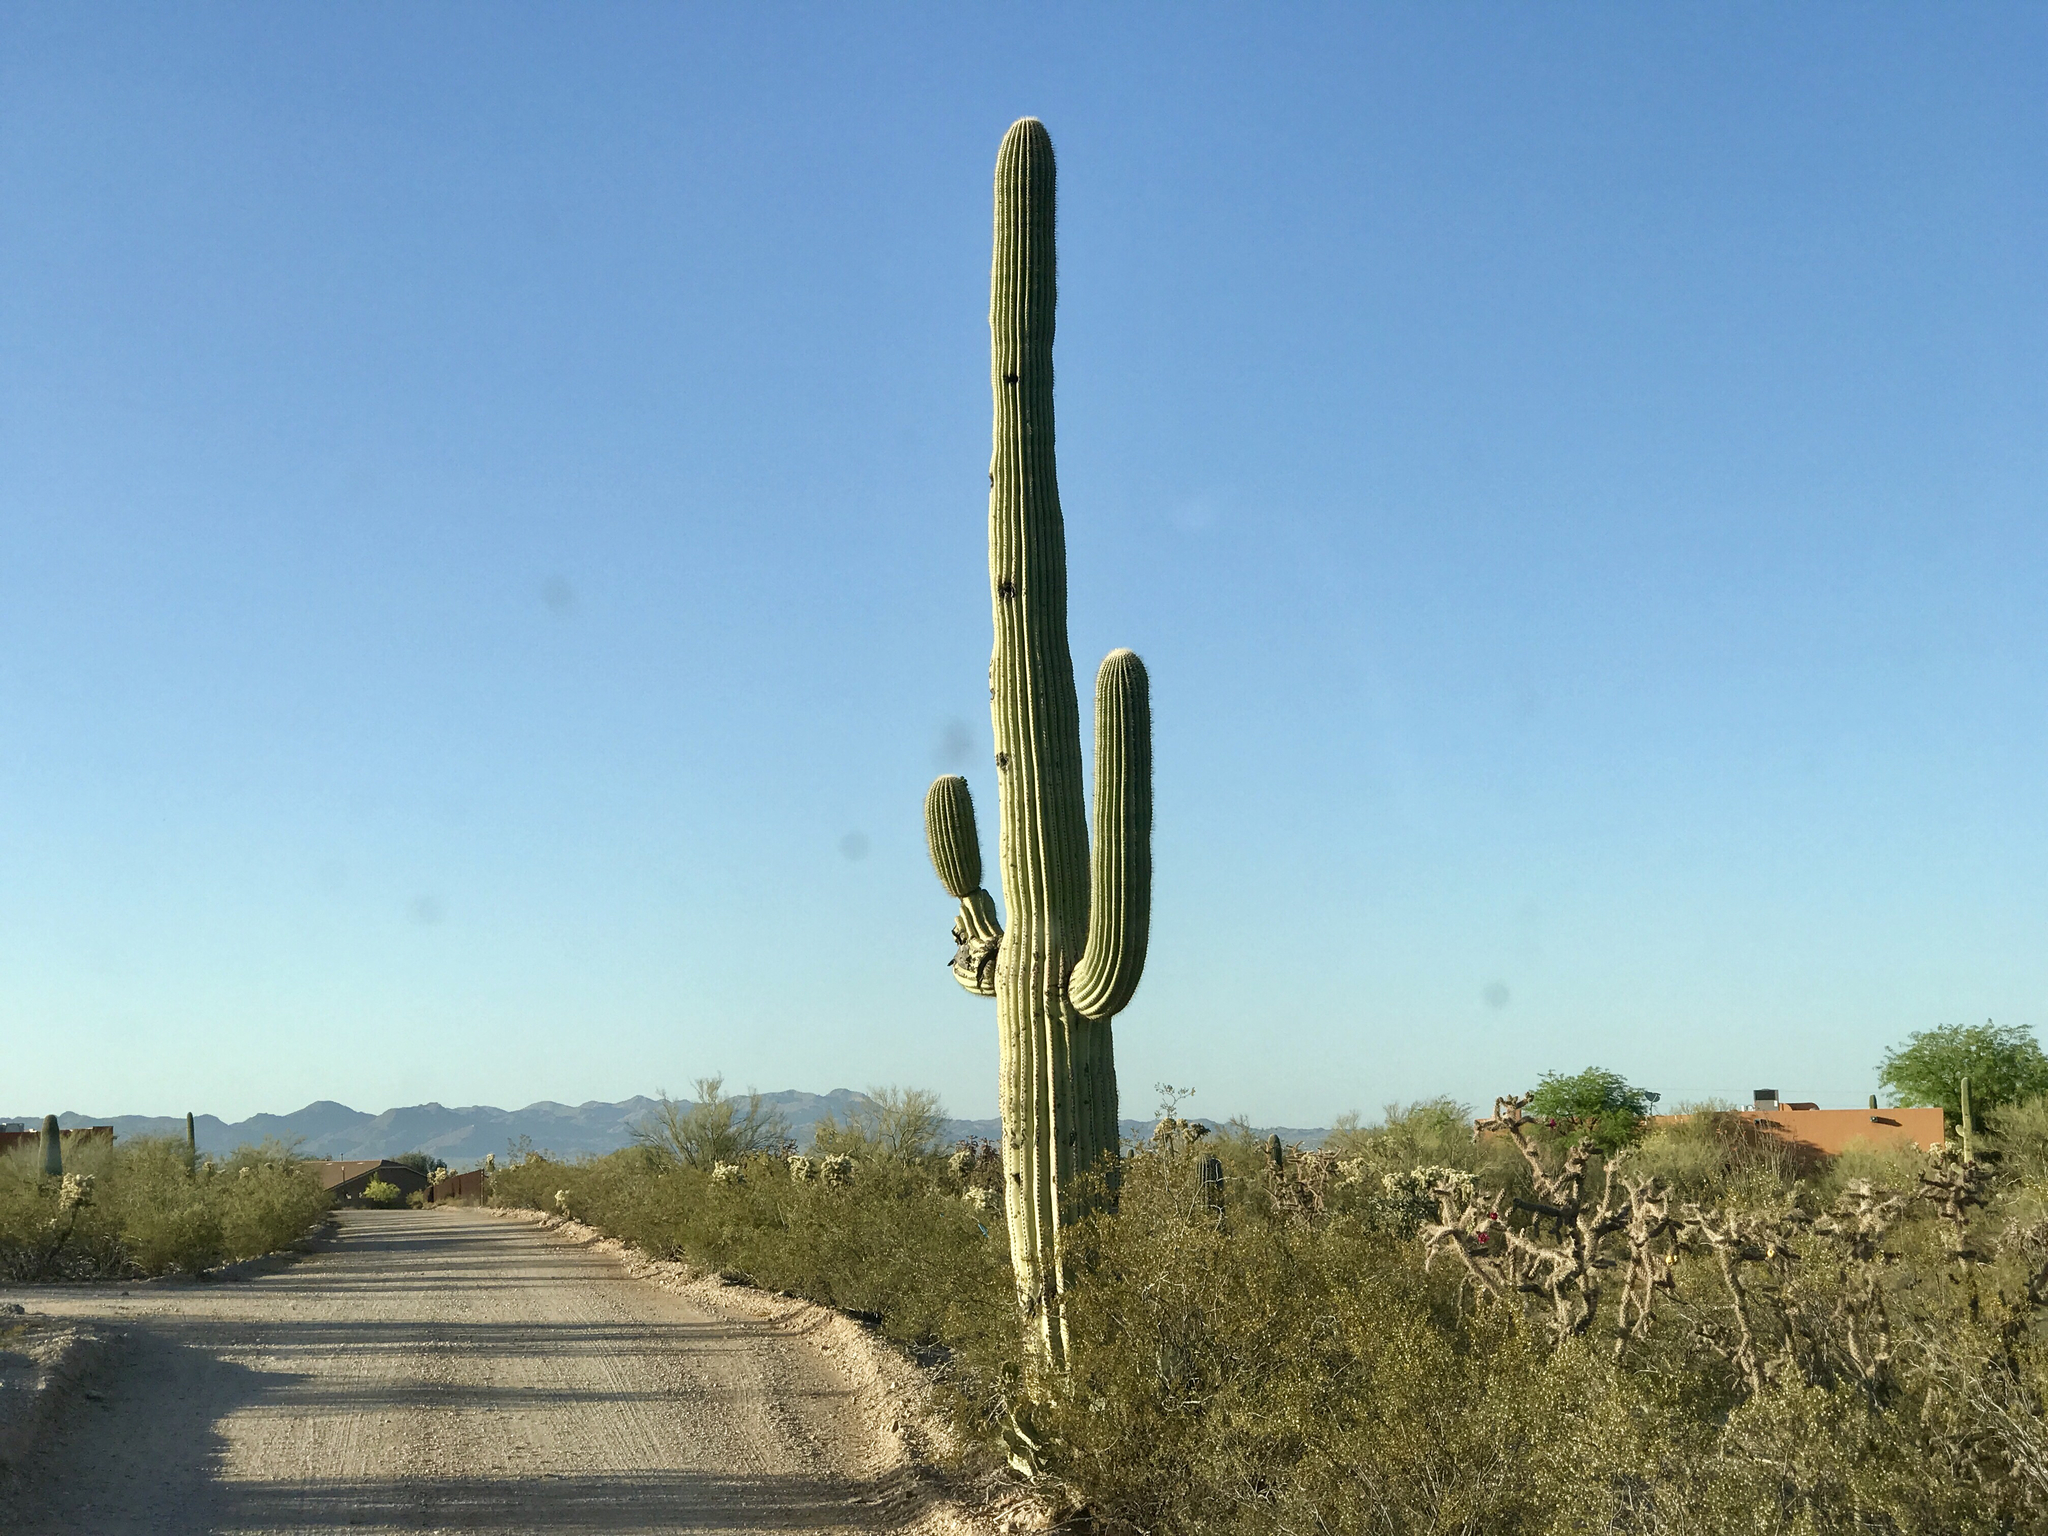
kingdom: Plantae
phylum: Tracheophyta
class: Magnoliopsida
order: Caryophyllales
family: Cactaceae
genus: Carnegiea
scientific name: Carnegiea gigantea
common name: Saguaro
